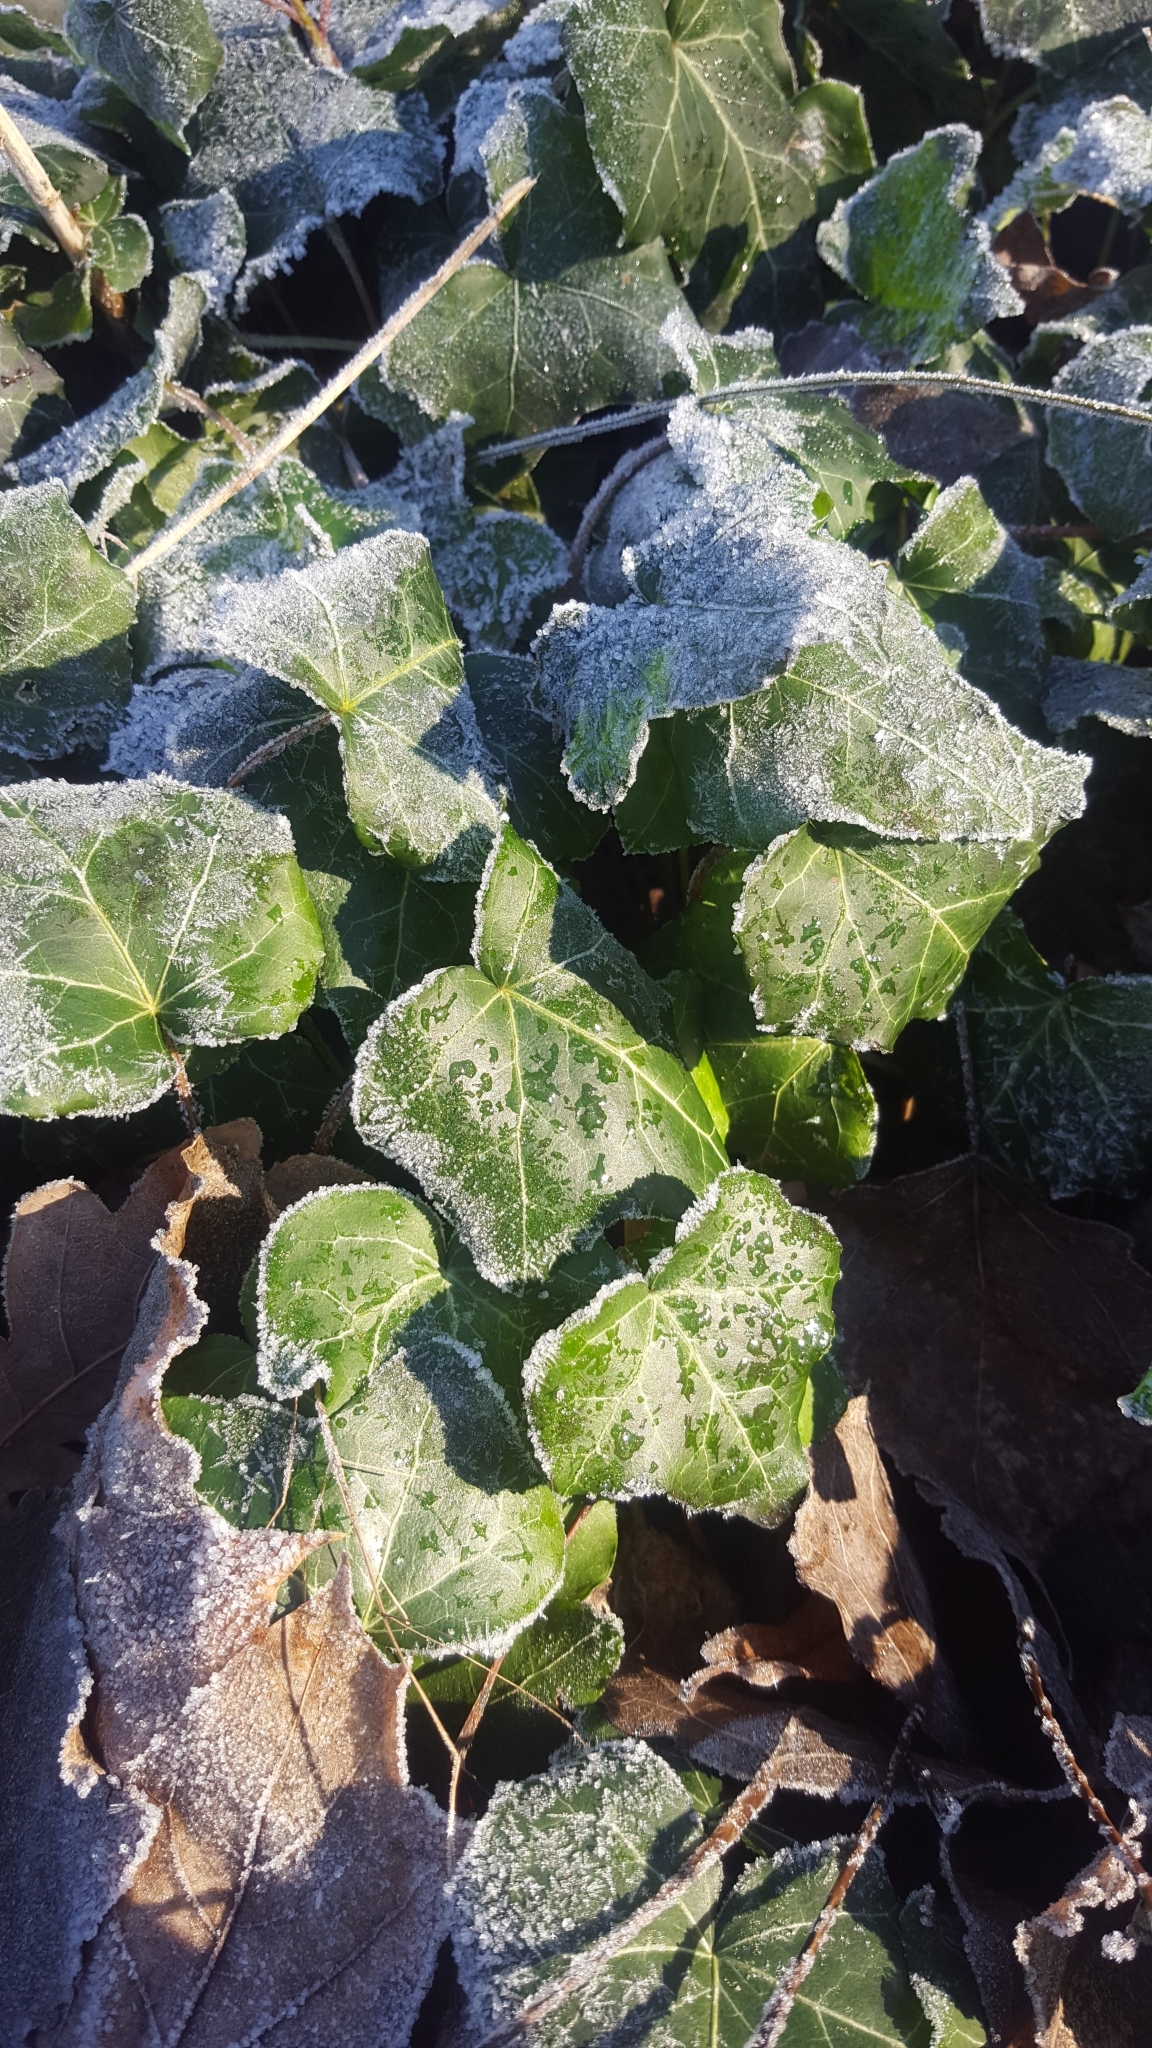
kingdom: Plantae
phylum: Tracheophyta
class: Magnoliopsida
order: Apiales
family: Araliaceae
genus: Hedera
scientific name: Hedera helix
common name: Ivy
